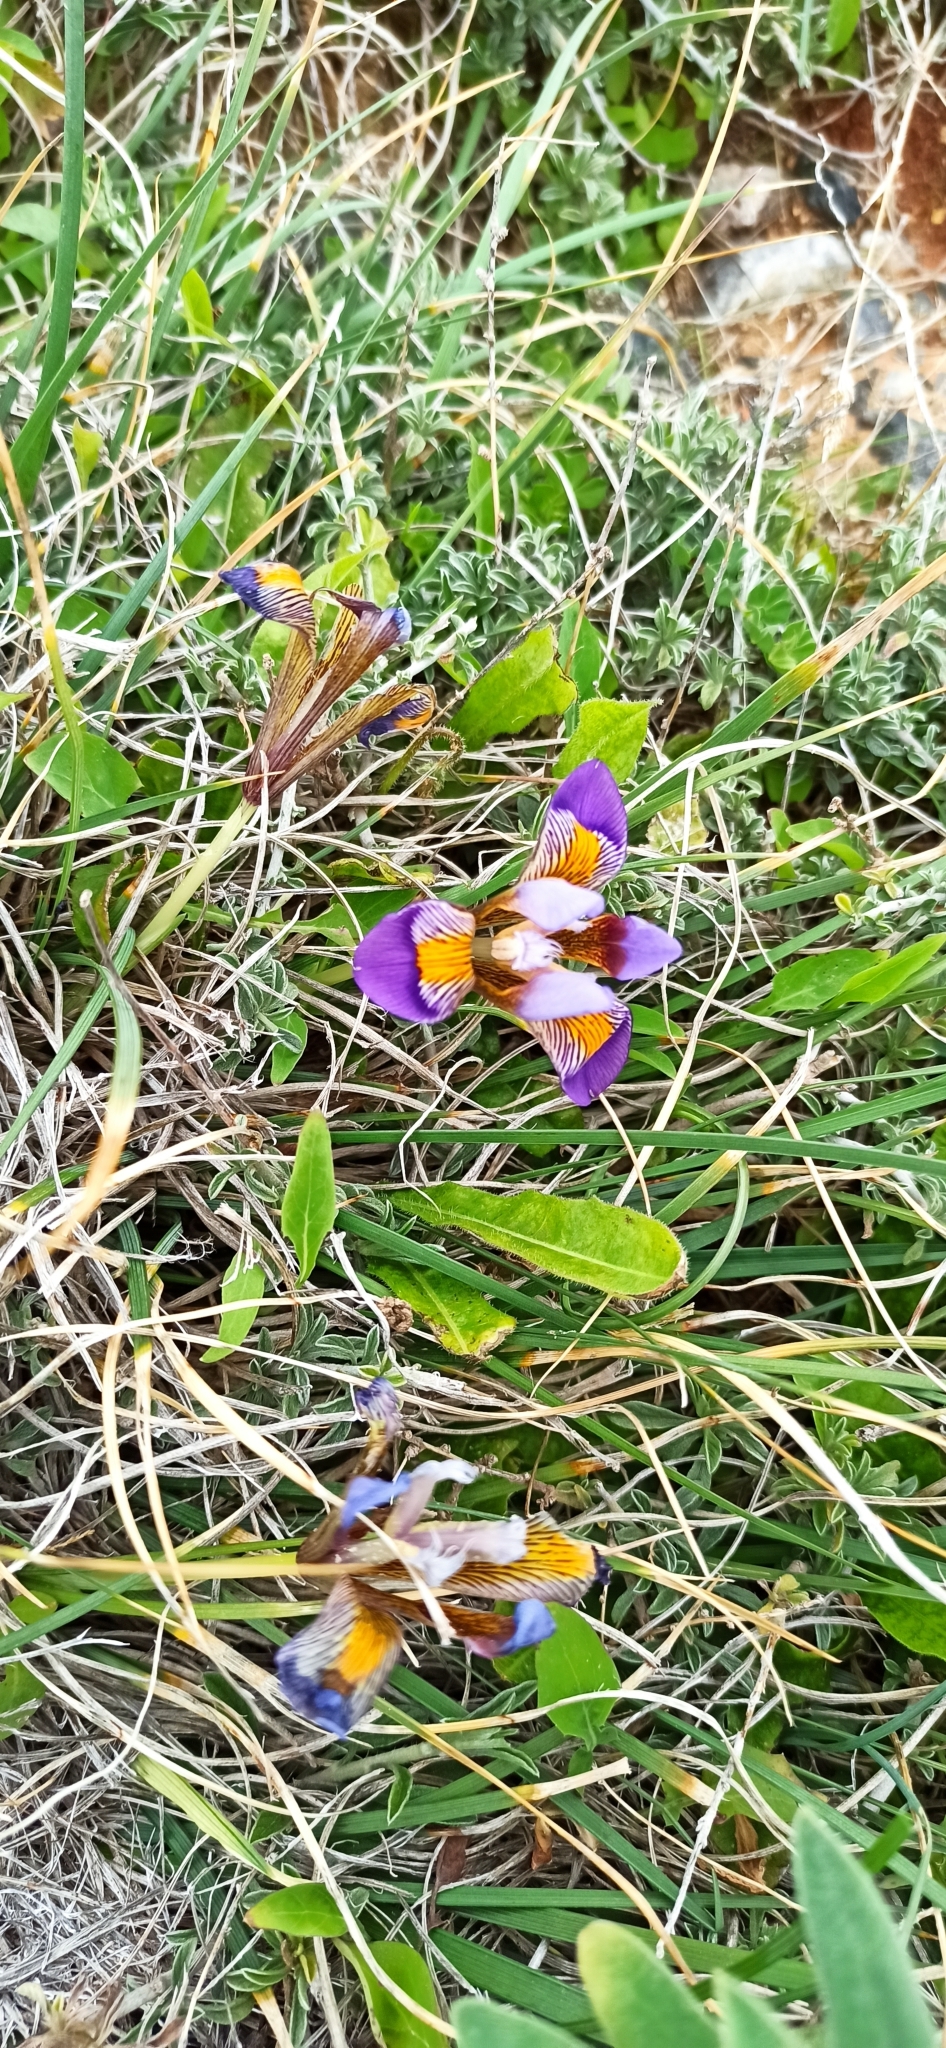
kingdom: Plantae
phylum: Tracheophyta
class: Liliopsida
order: Asparagales
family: Iridaceae
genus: Iris
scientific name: Iris unguicularis
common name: Algerian iris
